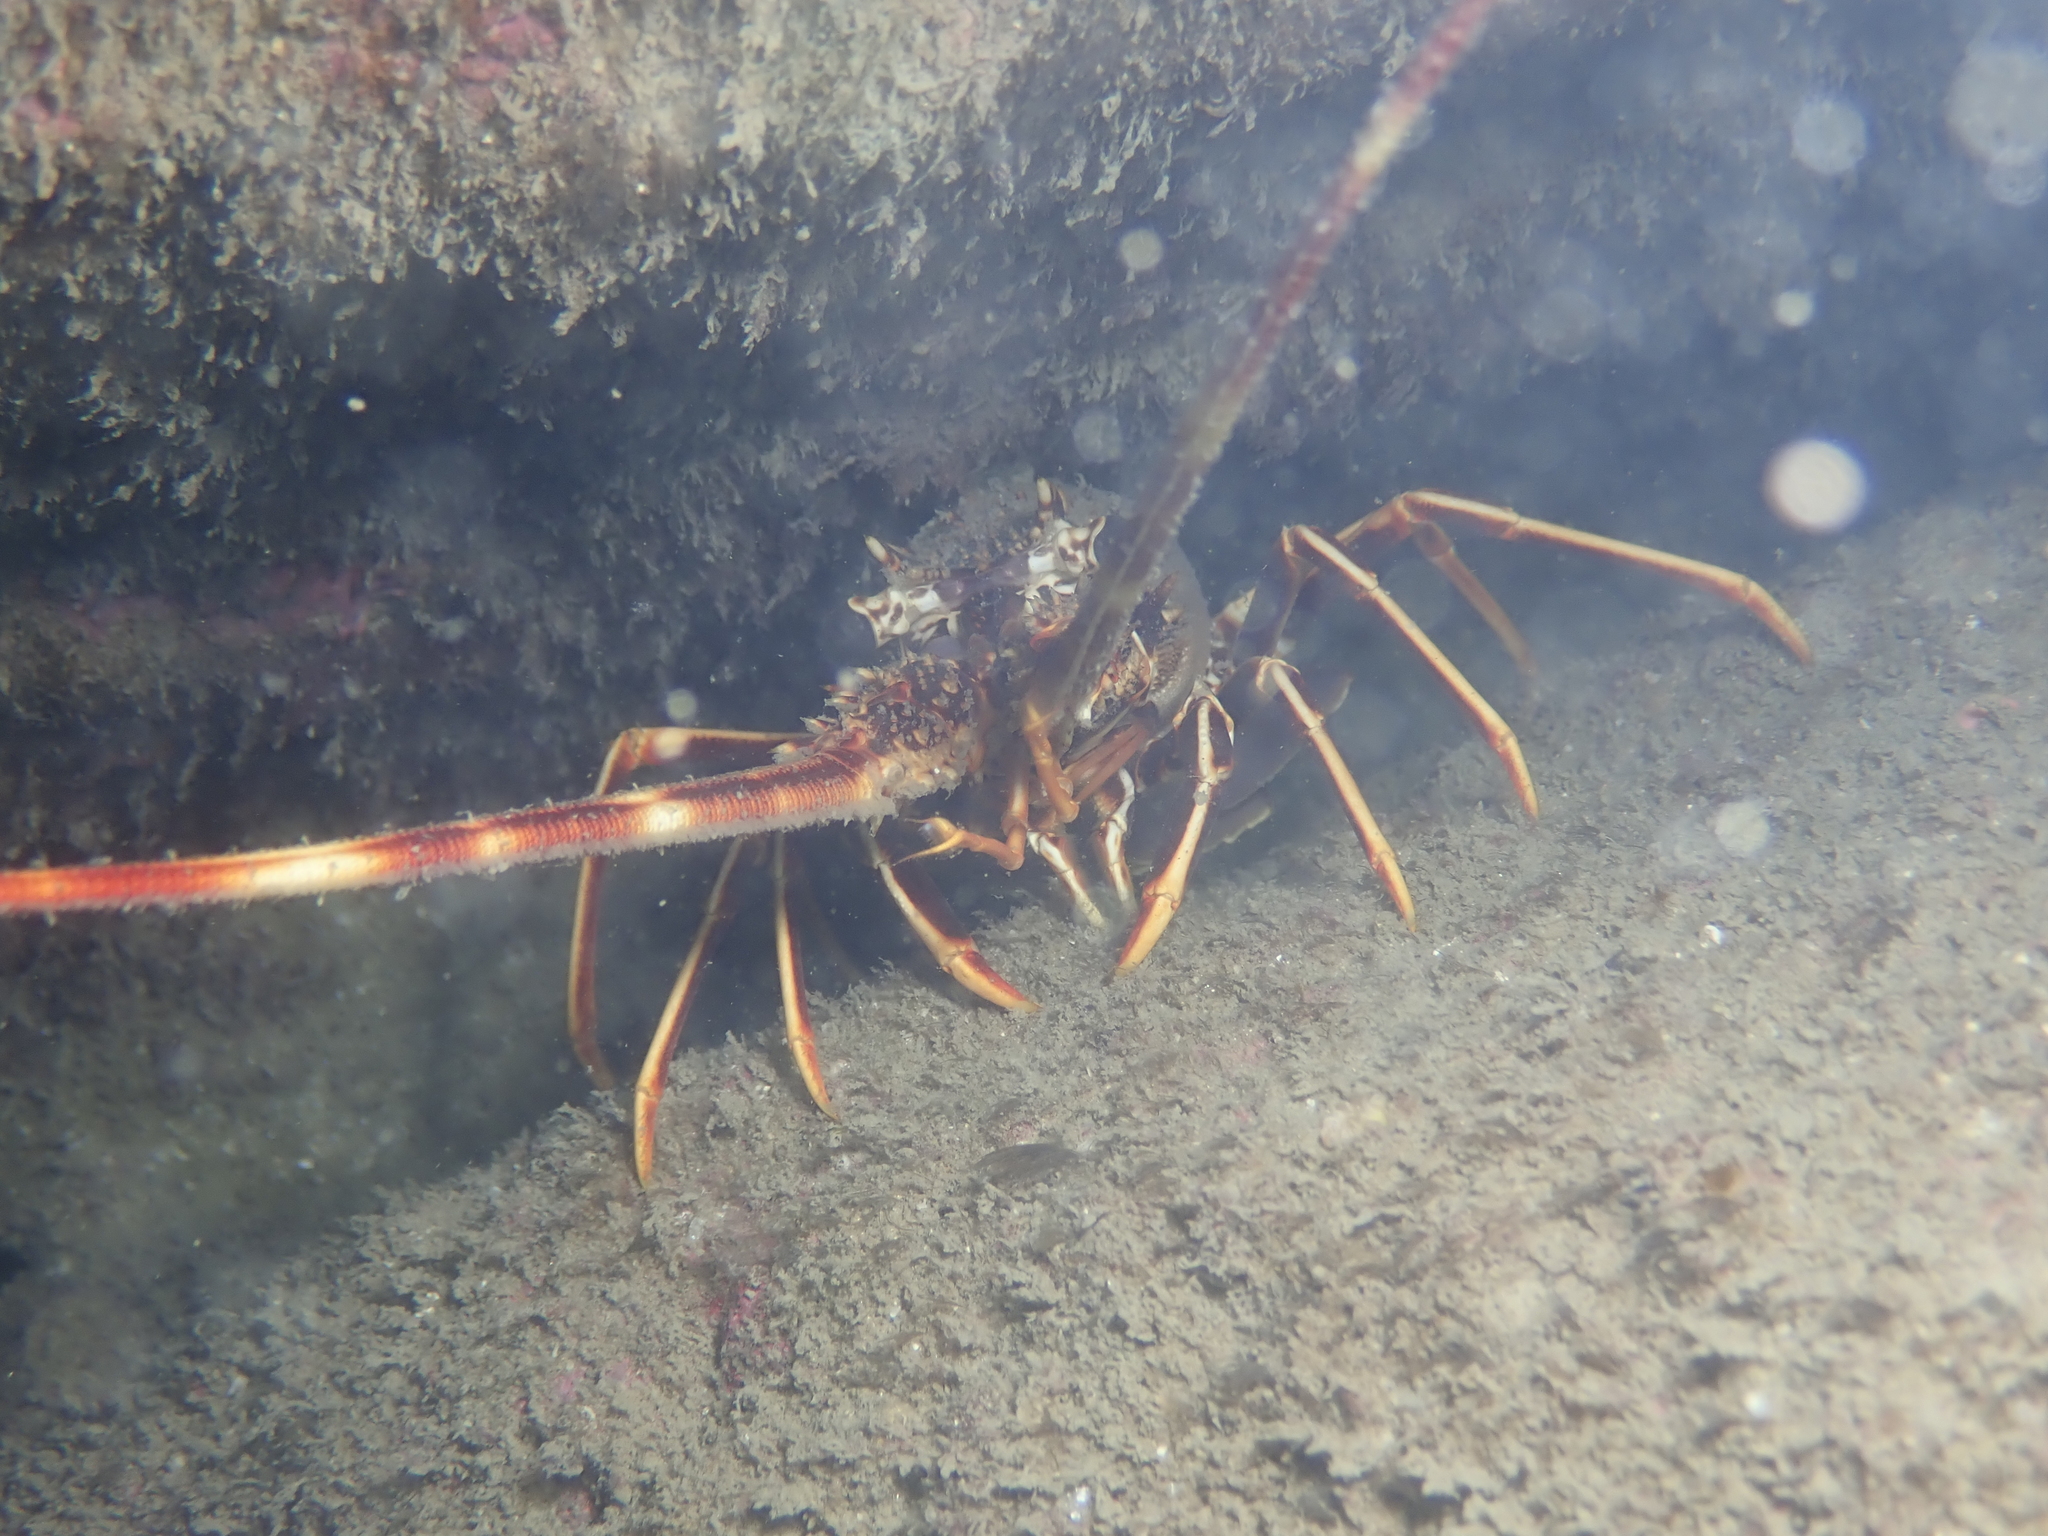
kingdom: Animalia
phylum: Arthropoda
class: Malacostraca
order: Decapoda
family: Palinuridae
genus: Palinurus
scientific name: Palinurus elephas
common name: European spiny lobster
